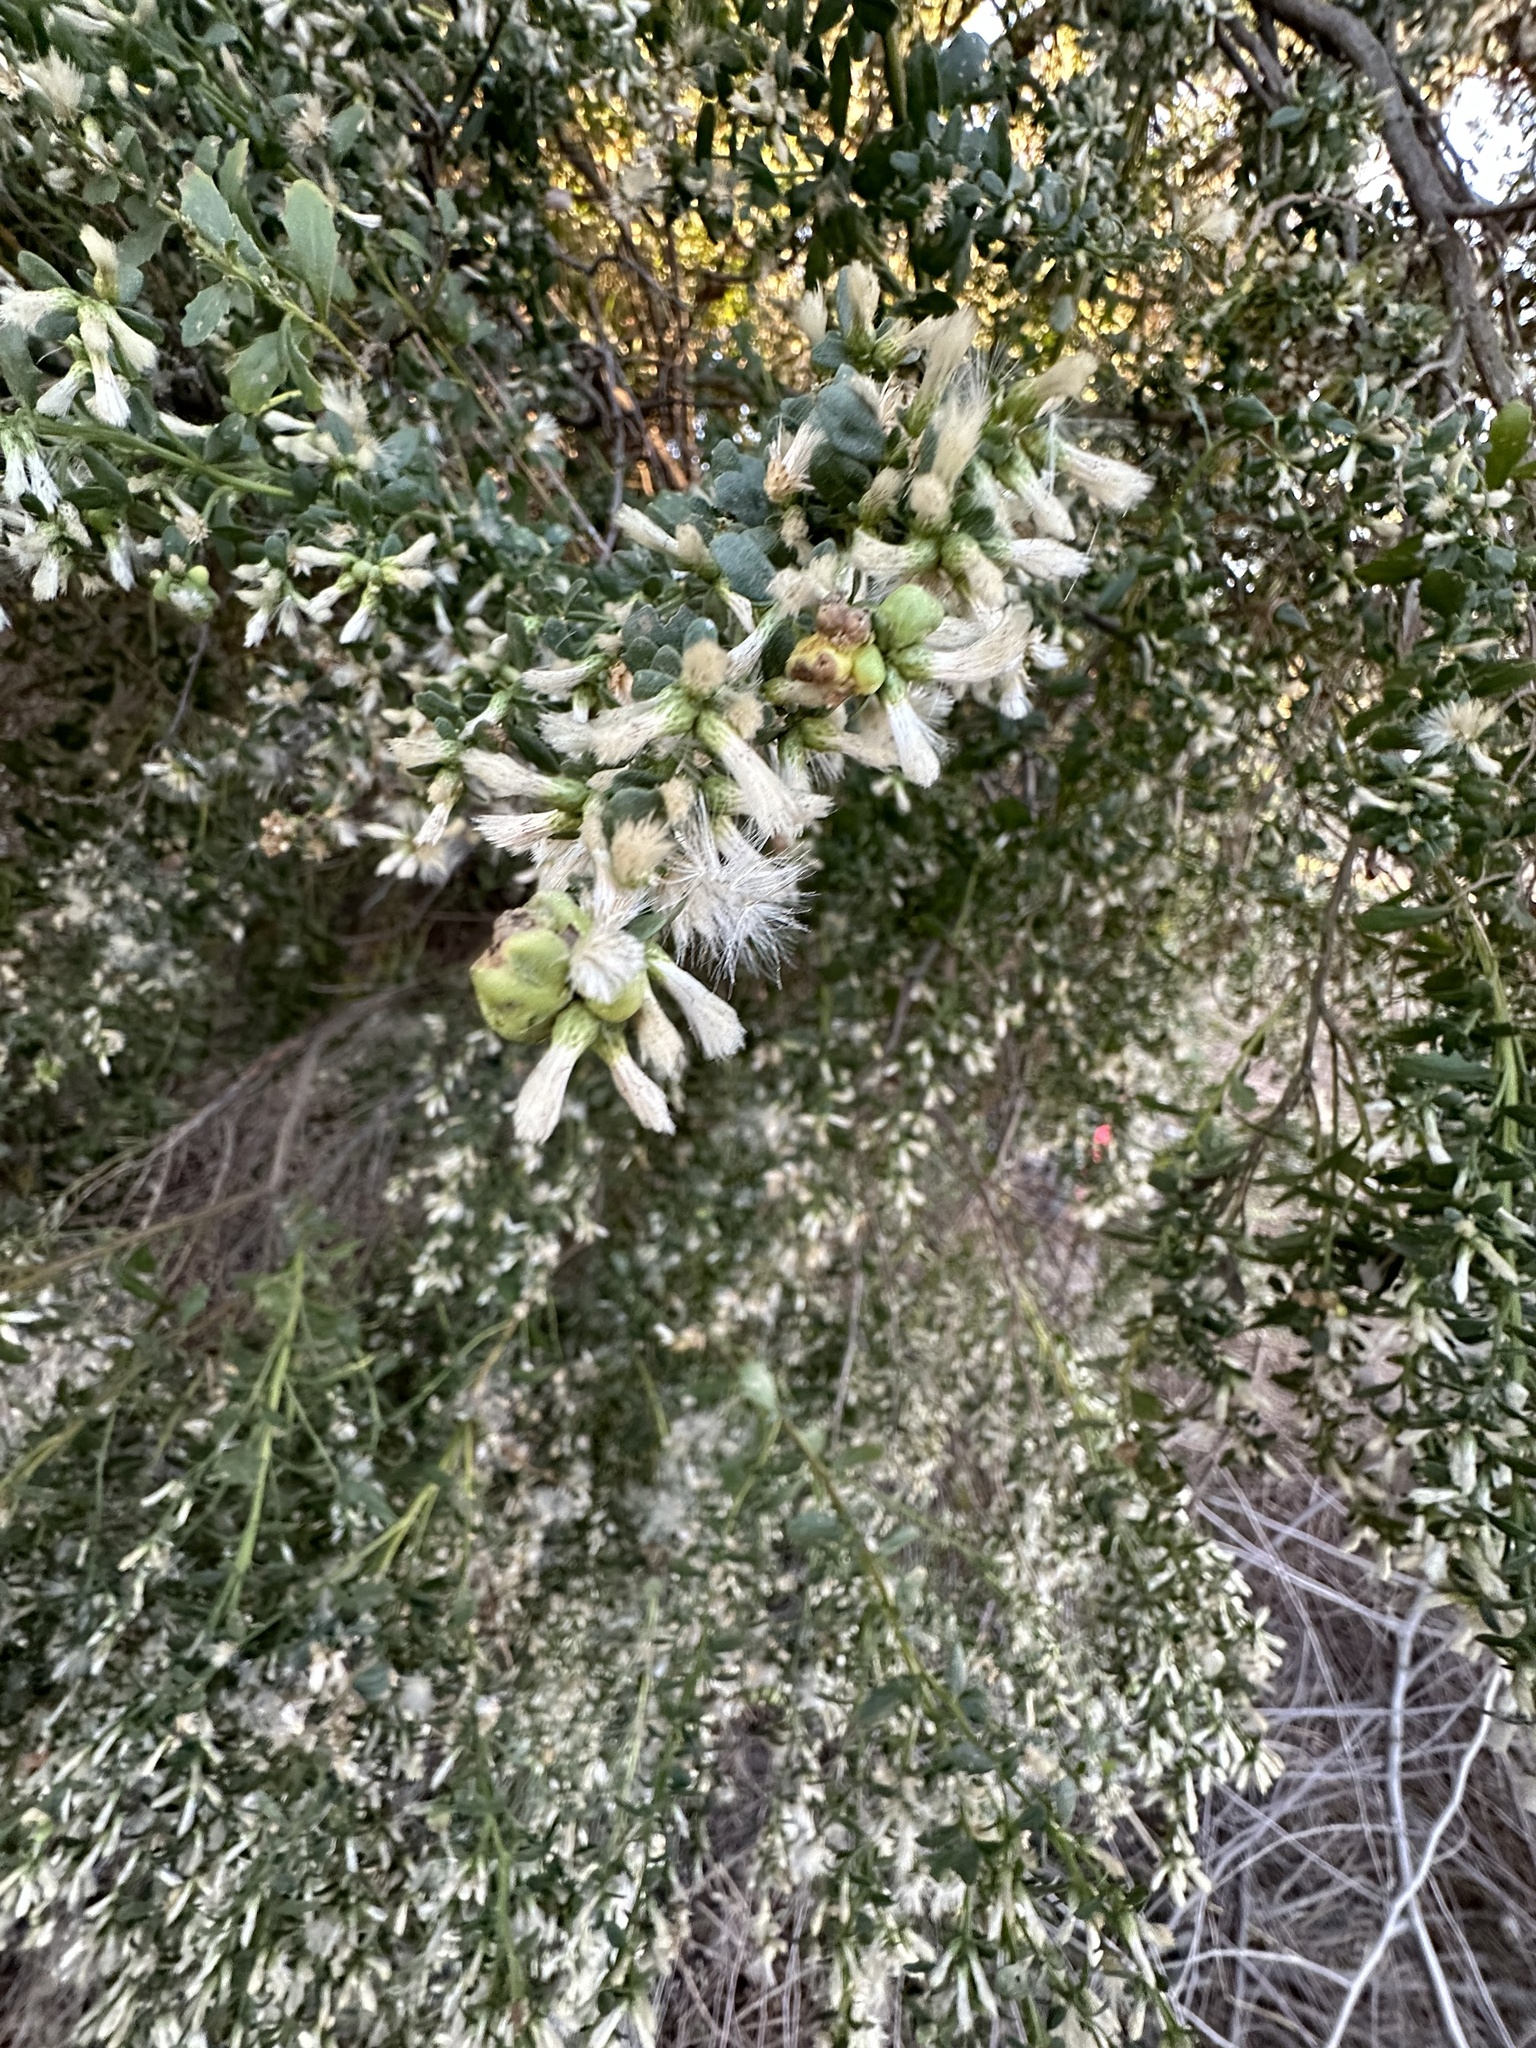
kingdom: Animalia
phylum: Arthropoda
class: Insecta
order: Diptera
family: Cecidomyiidae
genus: Rhopalomyia
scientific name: Rhopalomyia californica
